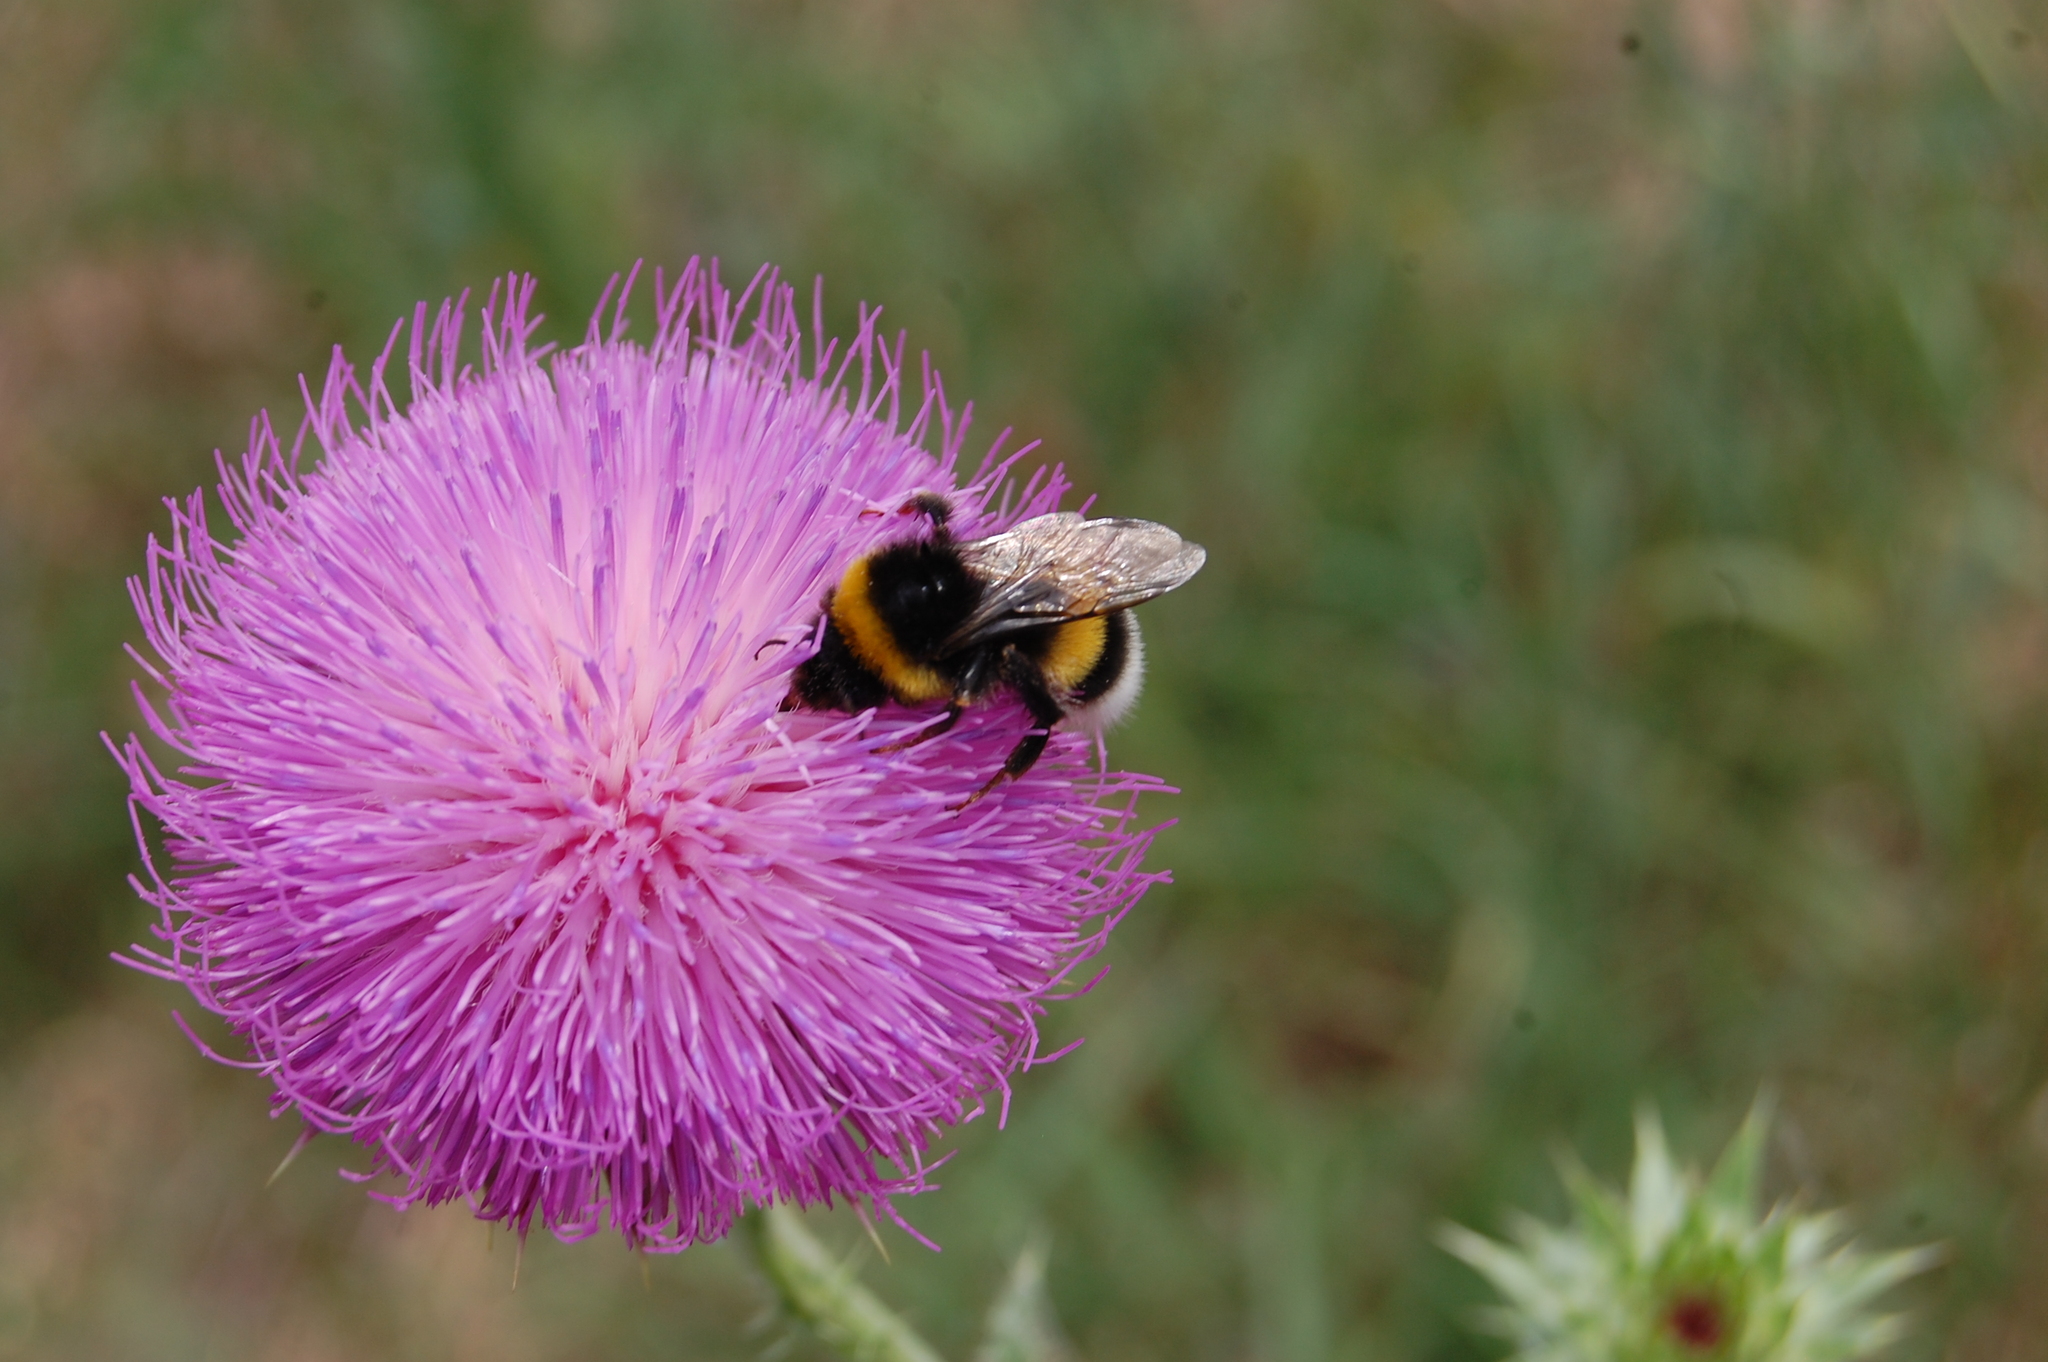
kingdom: Plantae
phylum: Tracheophyta
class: Magnoliopsida
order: Asterales
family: Asteraceae
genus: Carduus
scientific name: Carduus nutans
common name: Musk thistle
